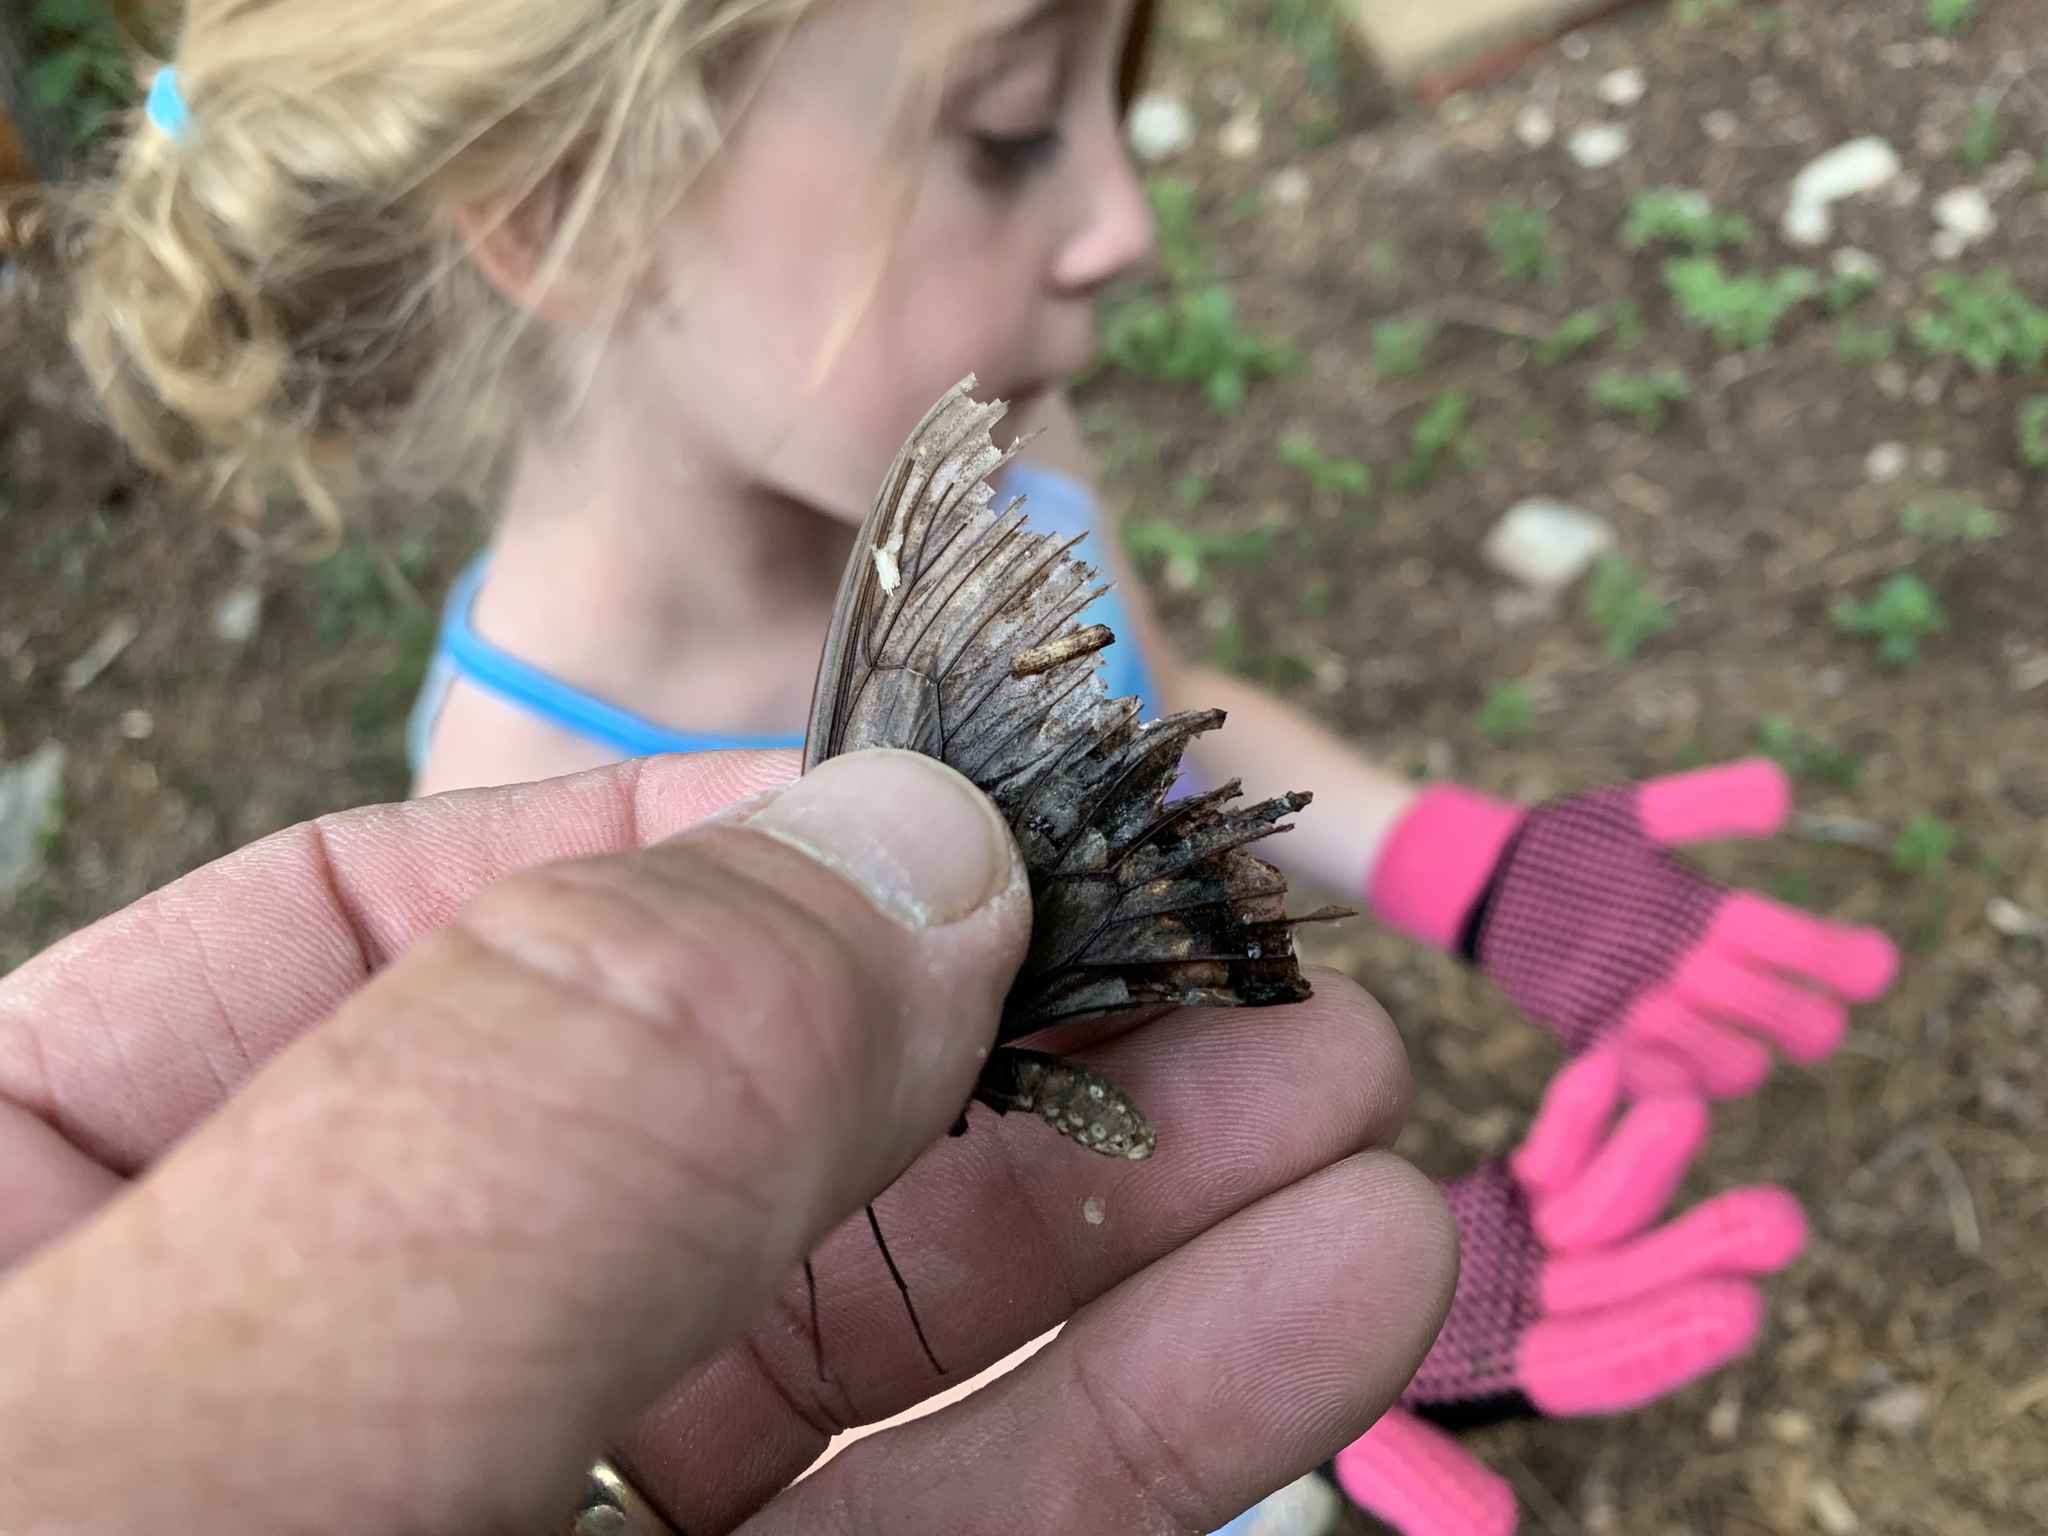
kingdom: Animalia
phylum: Arthropoda
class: Insecta
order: Lepidoptera
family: Papilionidae
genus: Papilio
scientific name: Papilio polyxenes
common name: Black swallowtail
